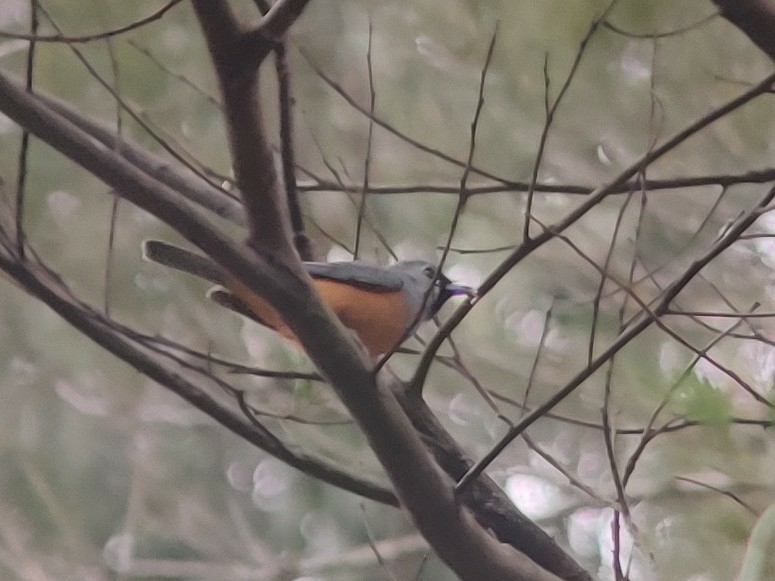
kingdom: Animalia
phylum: Chordata
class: Aves
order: Passeriformes
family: Monarchidae
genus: Monarcha
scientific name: Monarcha melanopsis
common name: Black-faced monarch
